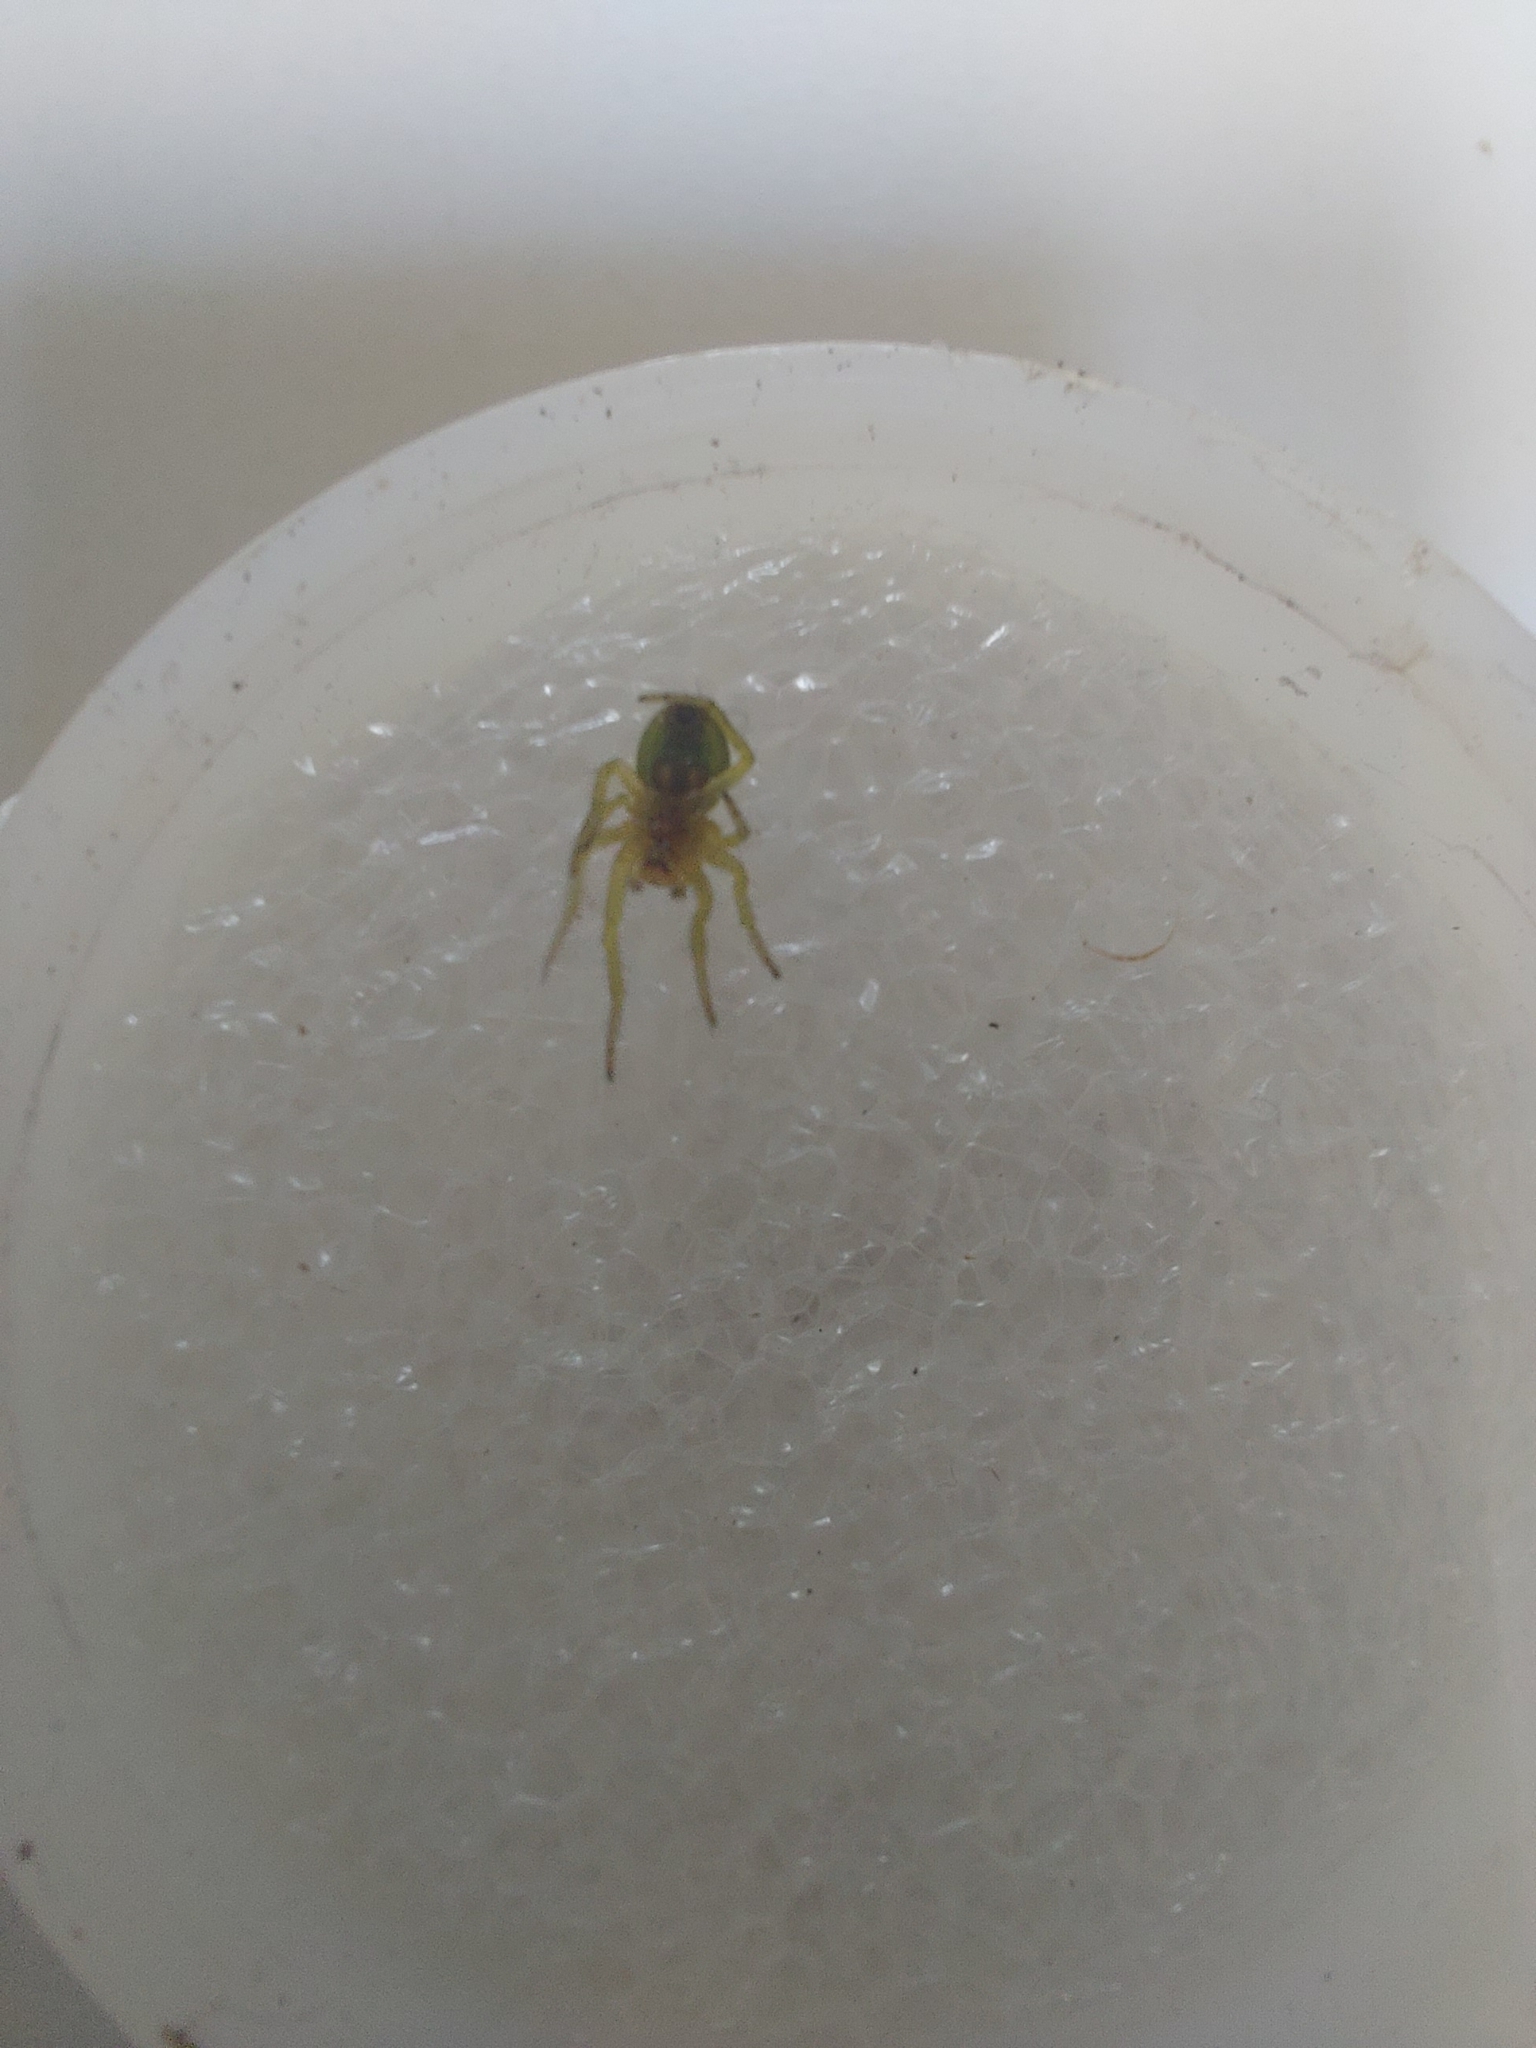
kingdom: Animalia
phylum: Arthropoda
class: Arachnida
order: Araneae
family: Araneidae
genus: Araniella
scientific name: Araniella
